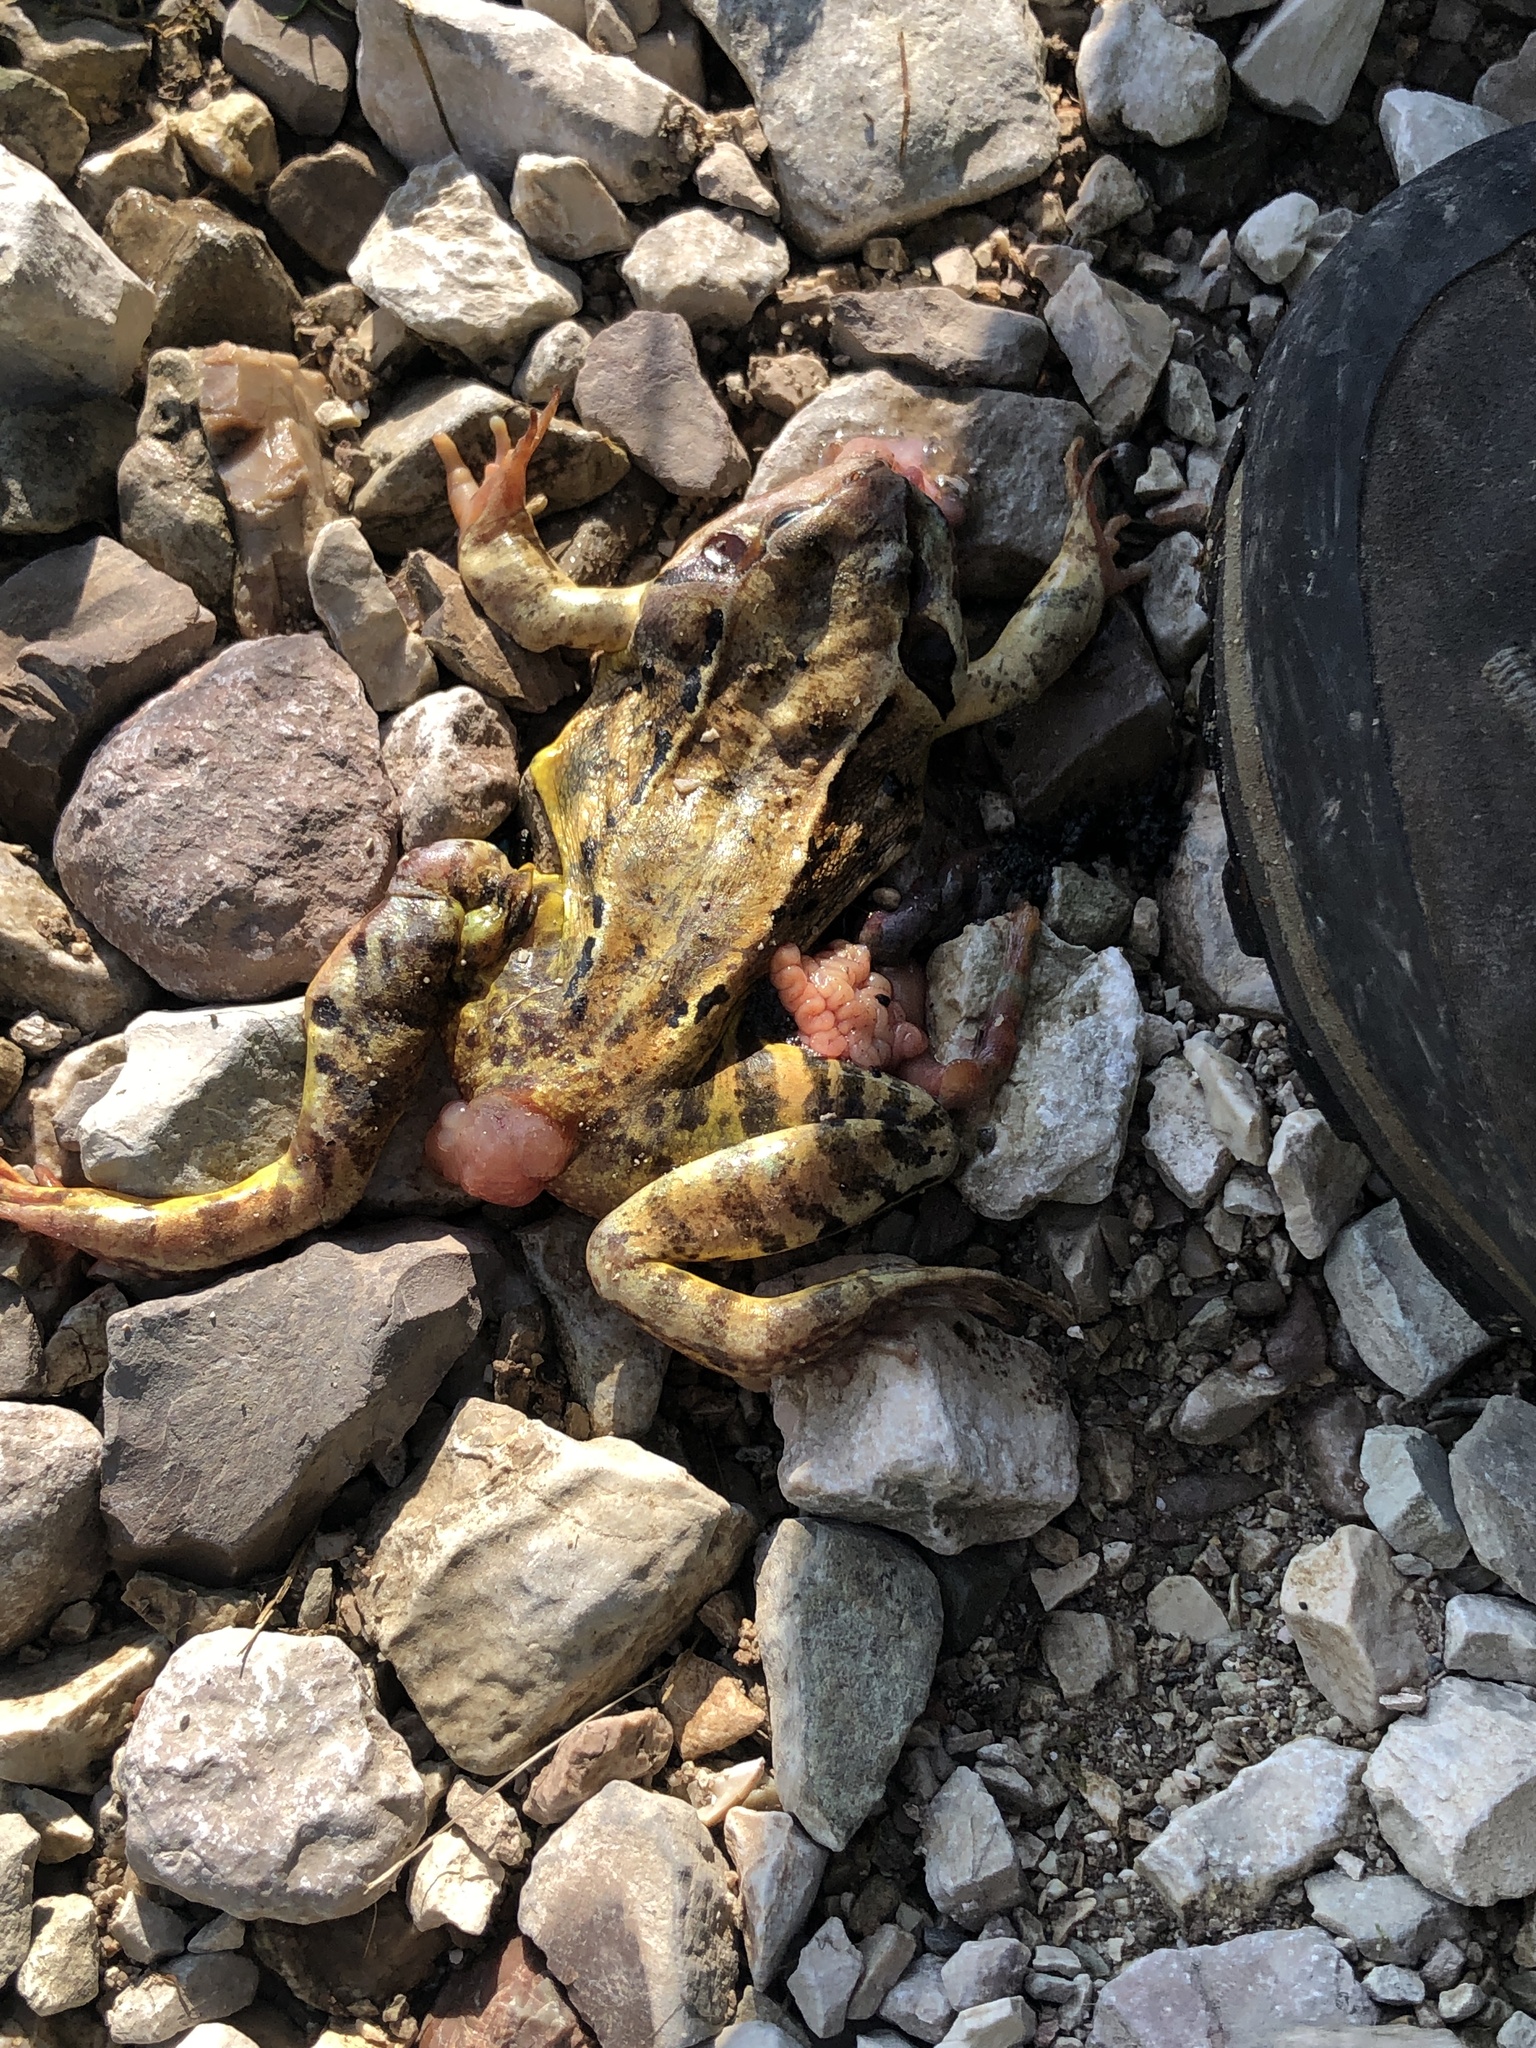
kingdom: Animalia
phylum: Chordata
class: Amphibia
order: Anura
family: Ranidae
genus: Rana
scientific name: Rana temporaria
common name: Common frog
